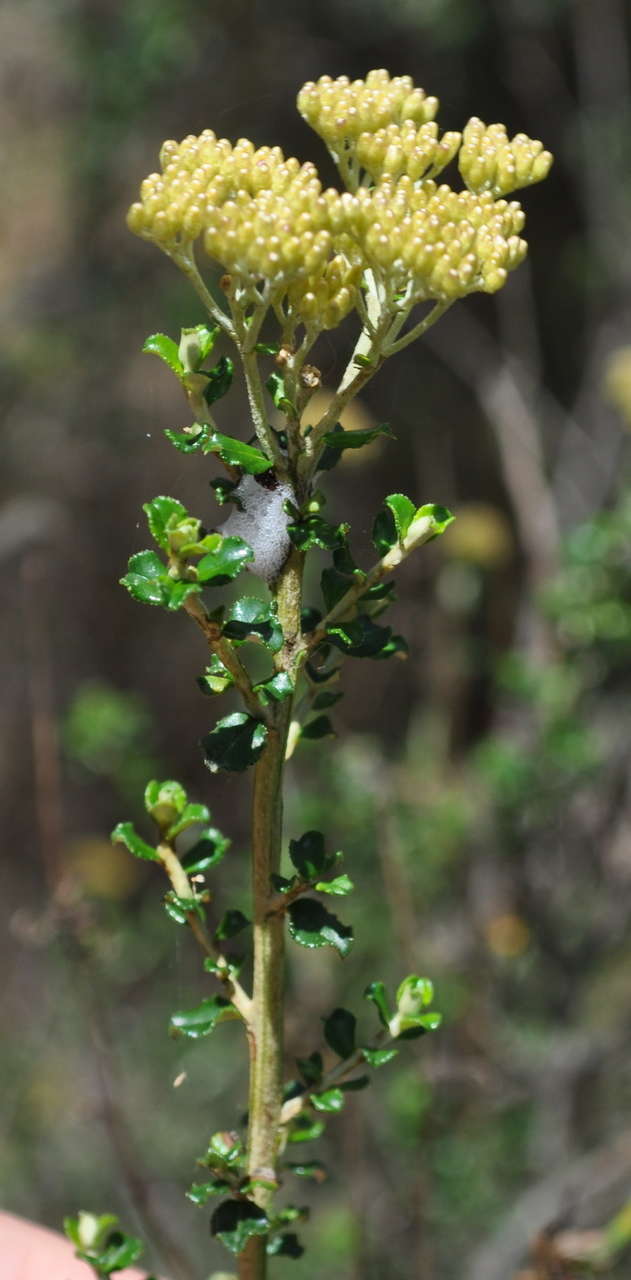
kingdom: Plantae
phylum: Tracheophyta
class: Magnoliopsida
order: Asterales
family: Asteraceae
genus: Ozothamnus
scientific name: Ozothamnus obcordatus
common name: Grey everlasting
